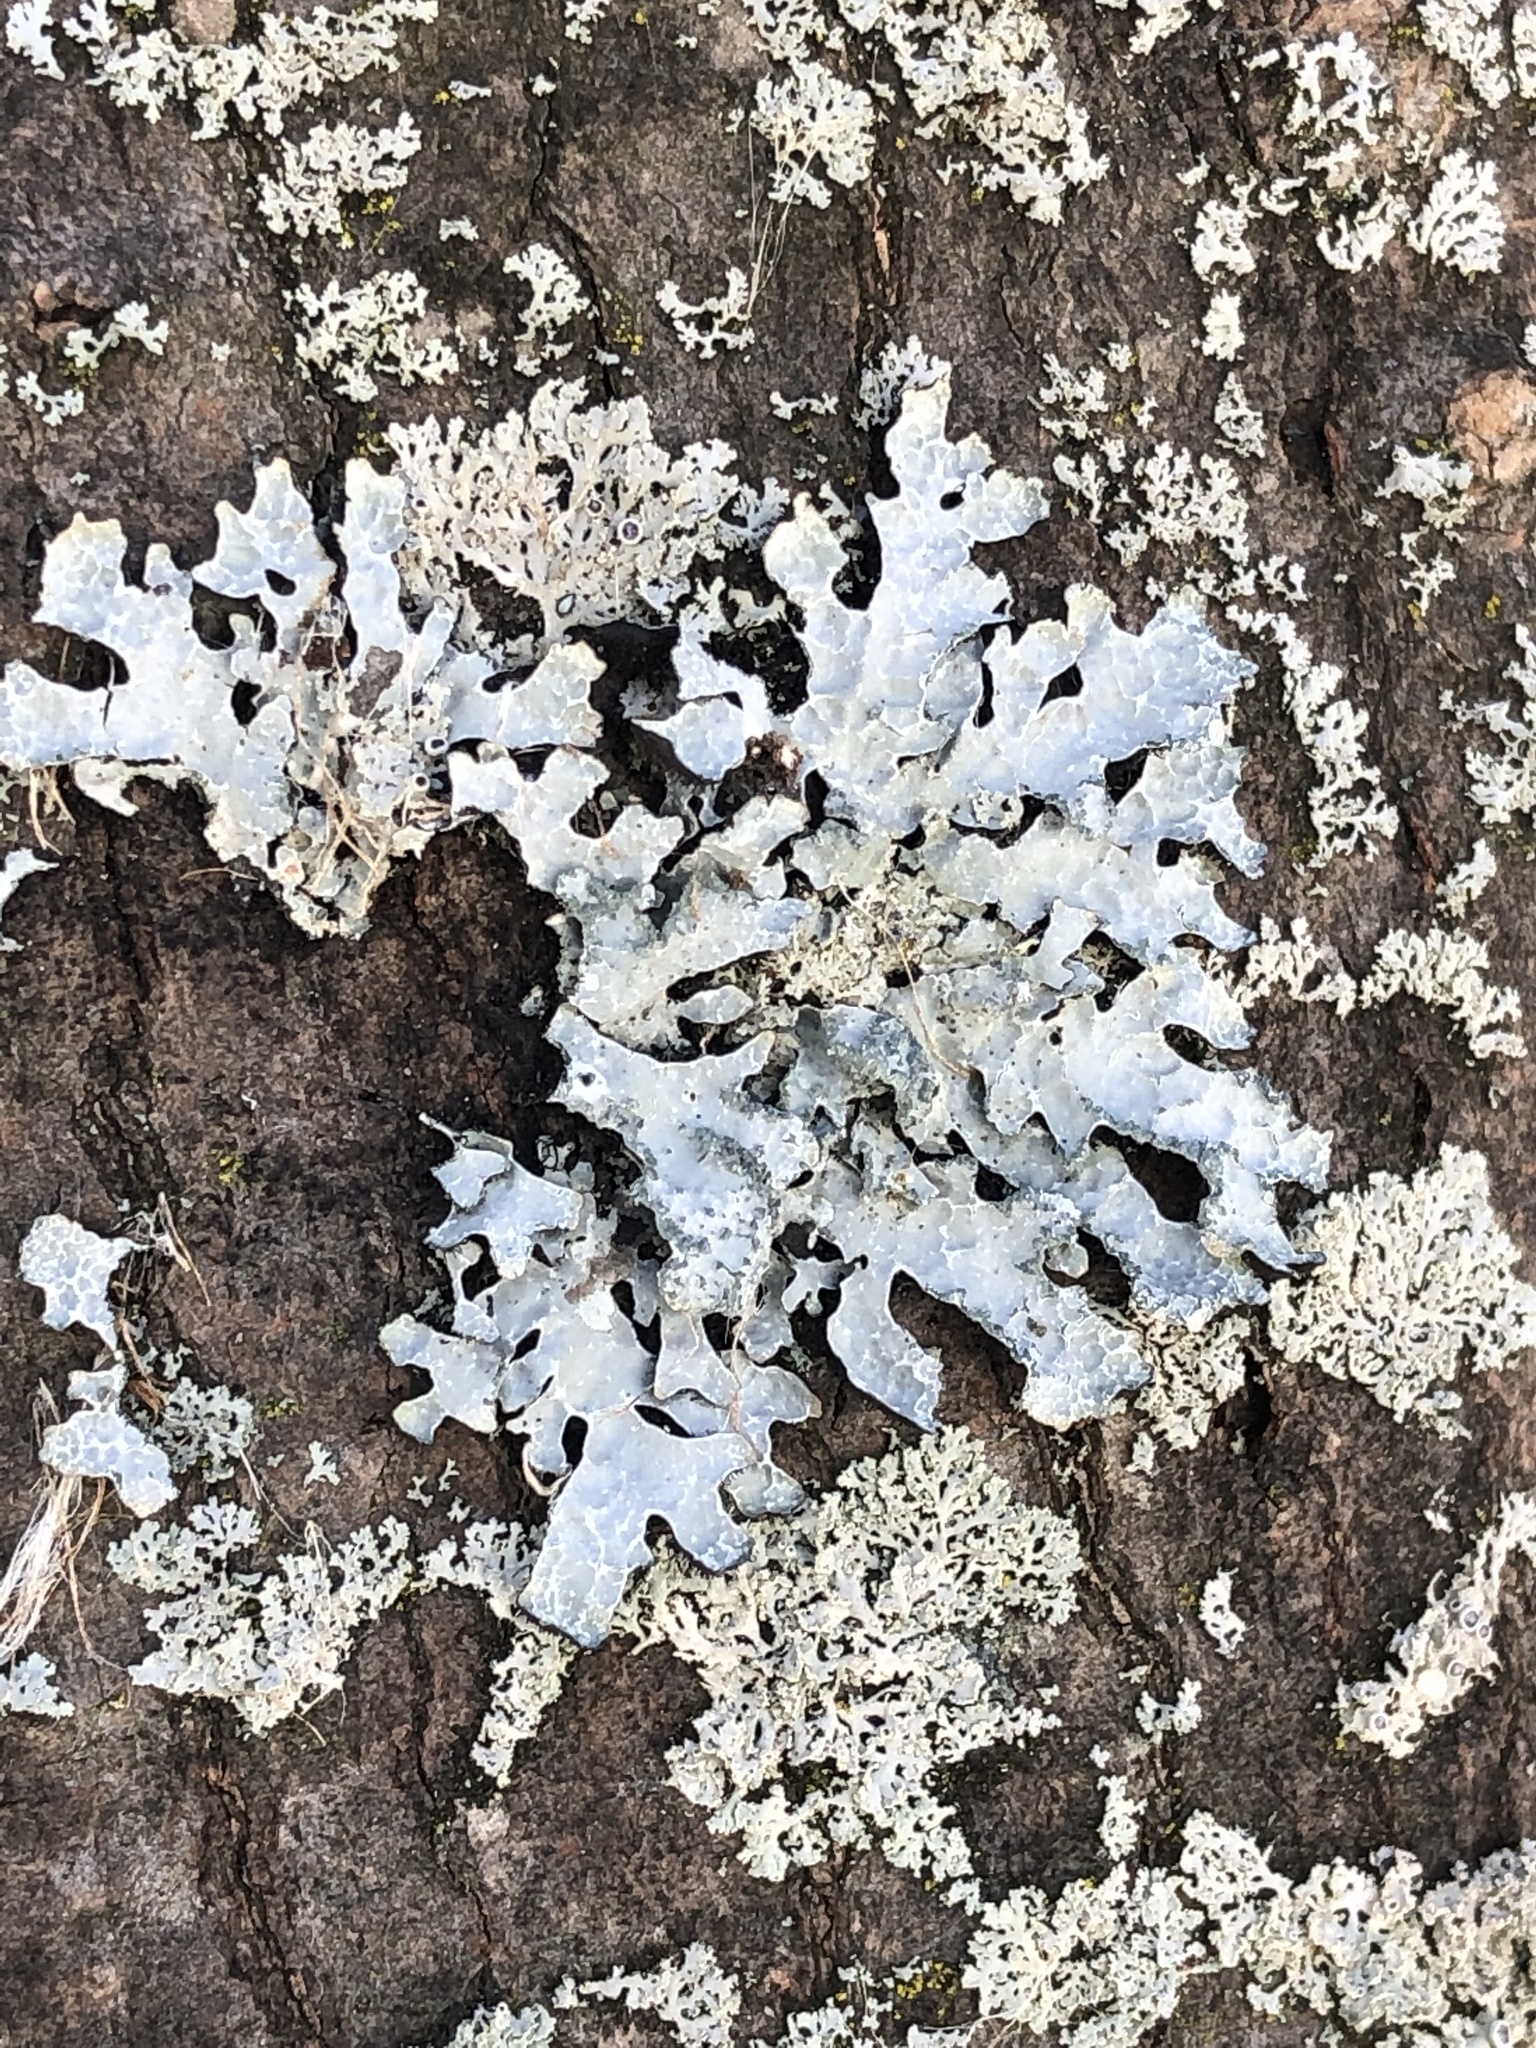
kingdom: Fungi
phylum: Ascomycota
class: Lecanoromycetes
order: Lecanorales
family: Parmeliaceae
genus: Parmelia
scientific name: Parmelia sulcata
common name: Netted shield lichen
